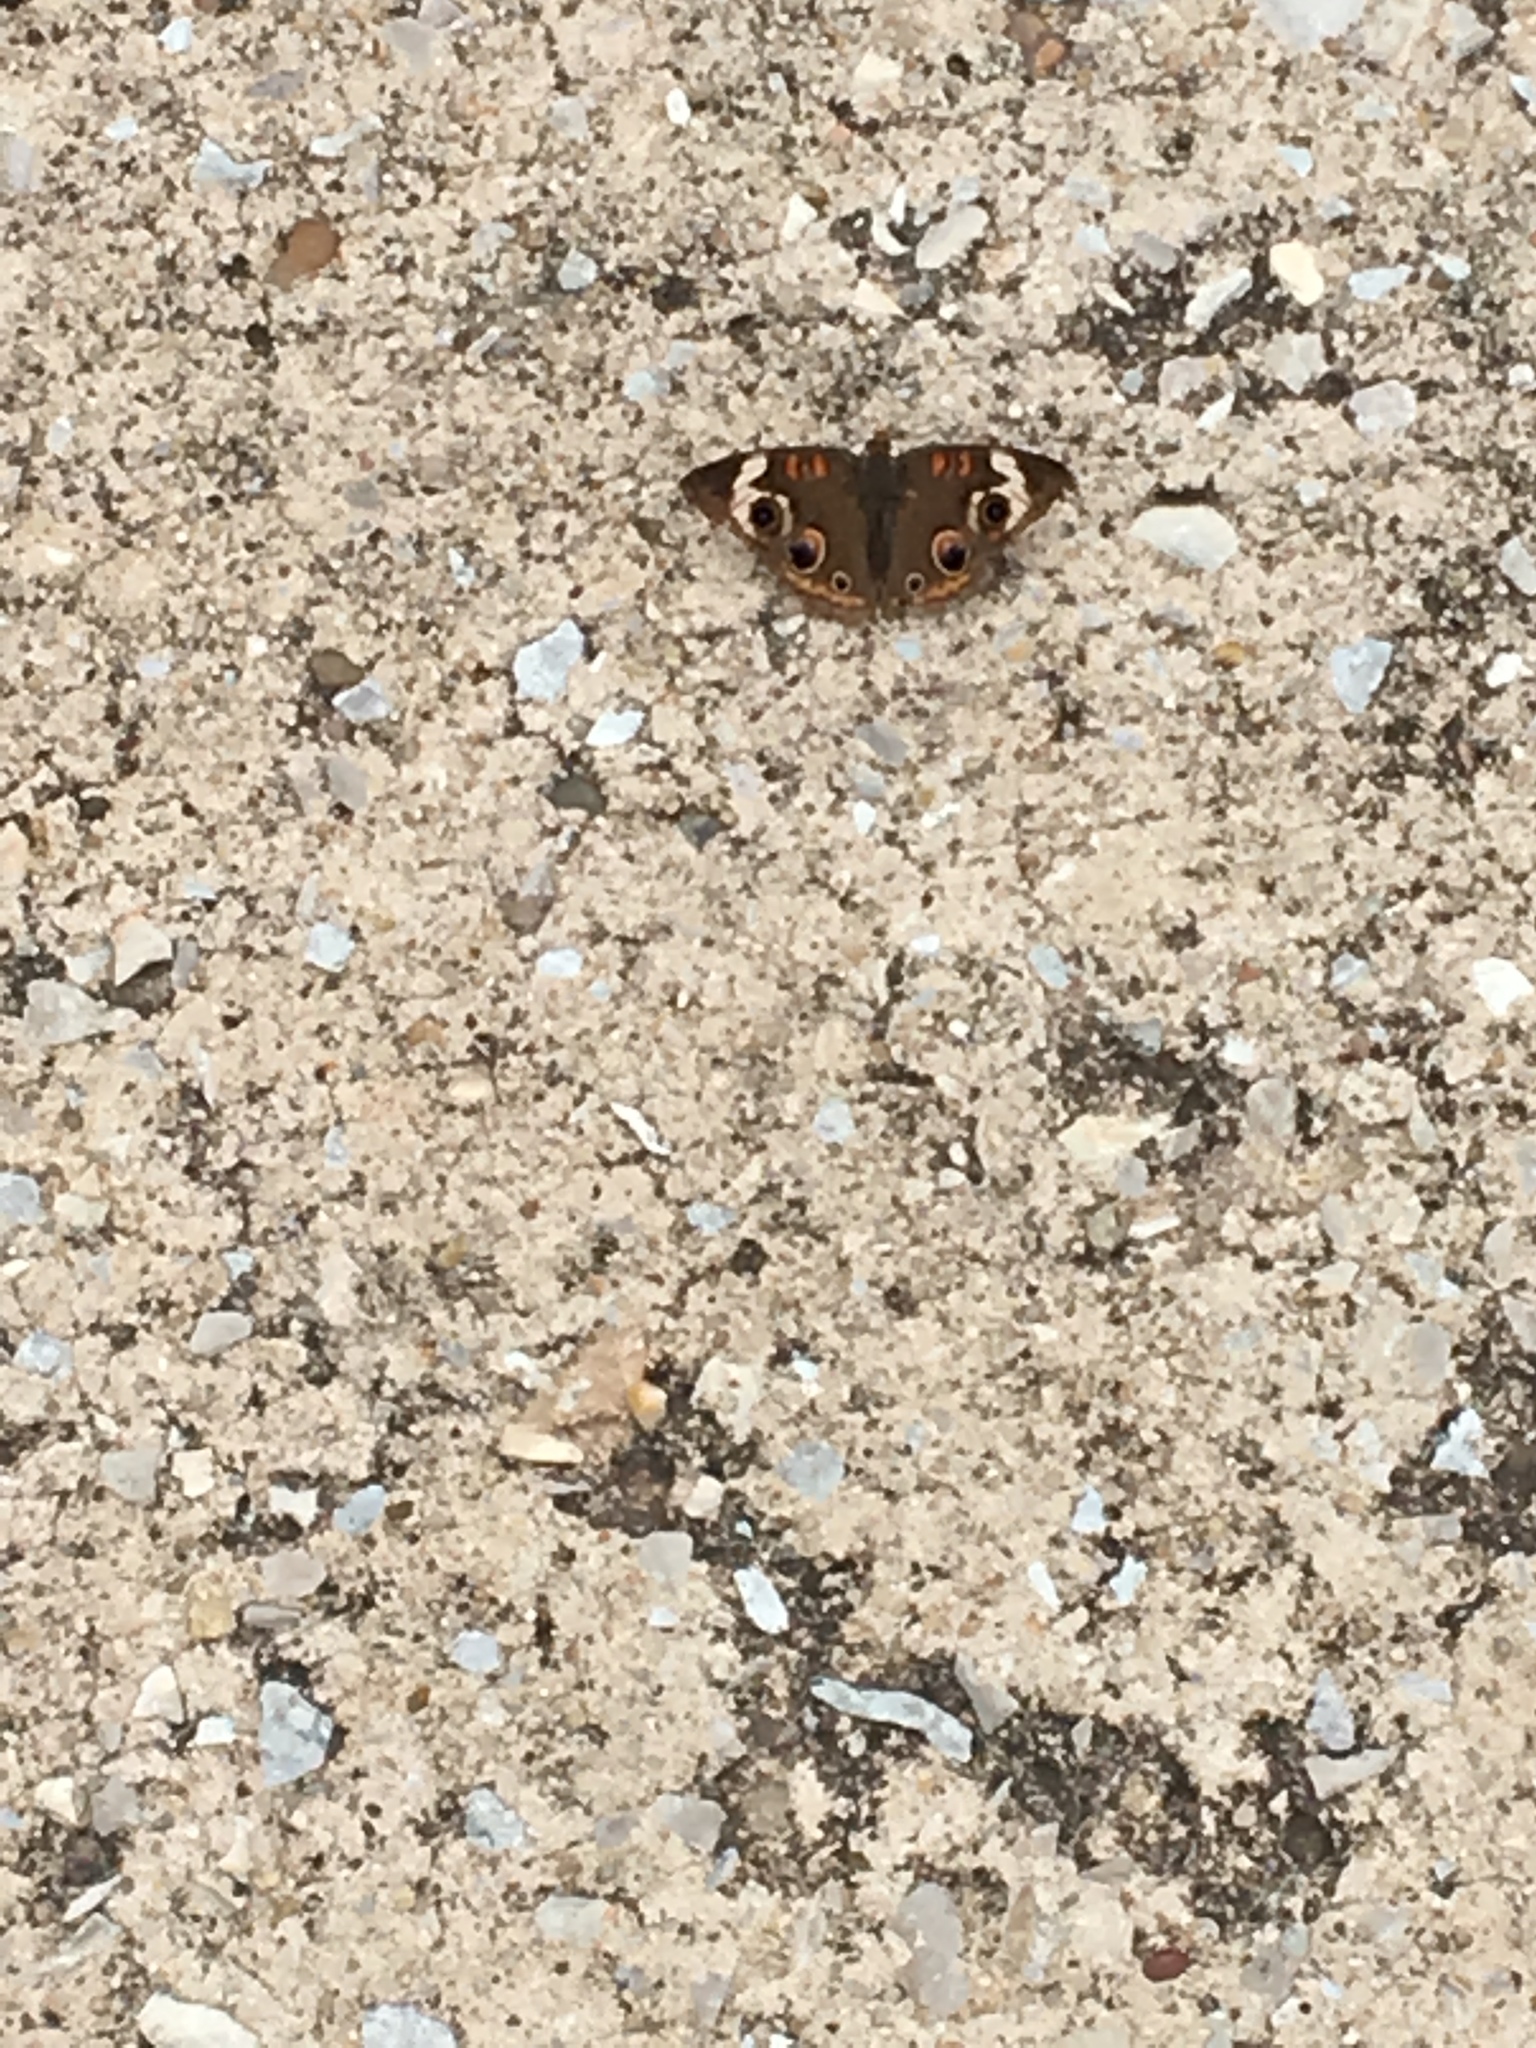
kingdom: Animalia
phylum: Arthropoda
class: Insecta
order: Lepidoptera
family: Nymphalidae
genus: Junonia
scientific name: Junonia coenia
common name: Common buckeye
